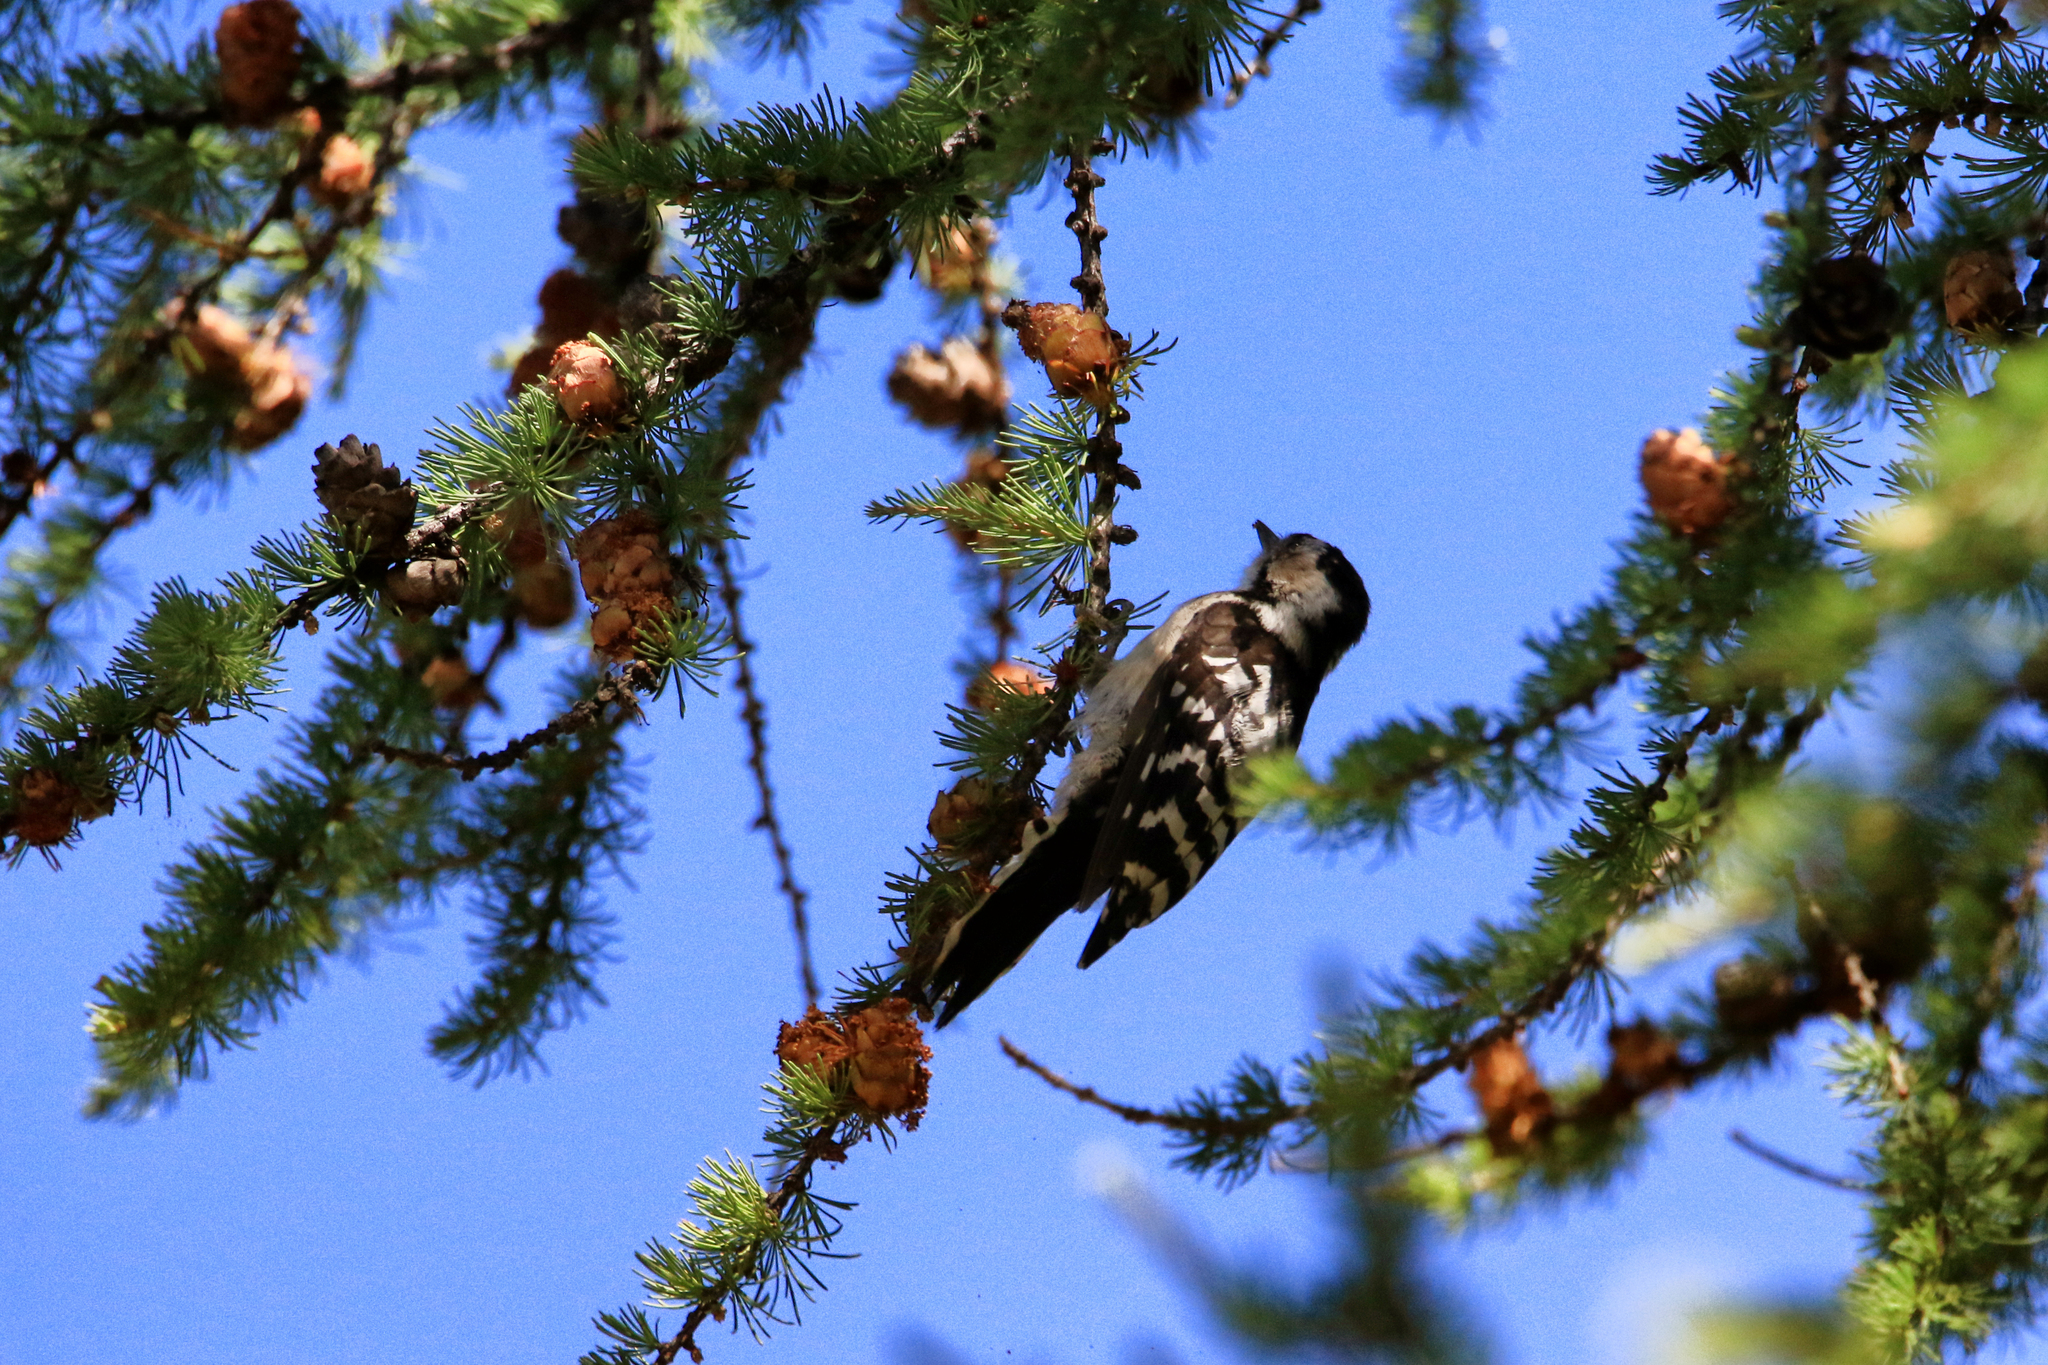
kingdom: Animalia
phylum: Chordata
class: Aves
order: Piciformes
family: Picidae
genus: Dryobates
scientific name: Dryobates minor
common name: Lesser spotted woodpecker
